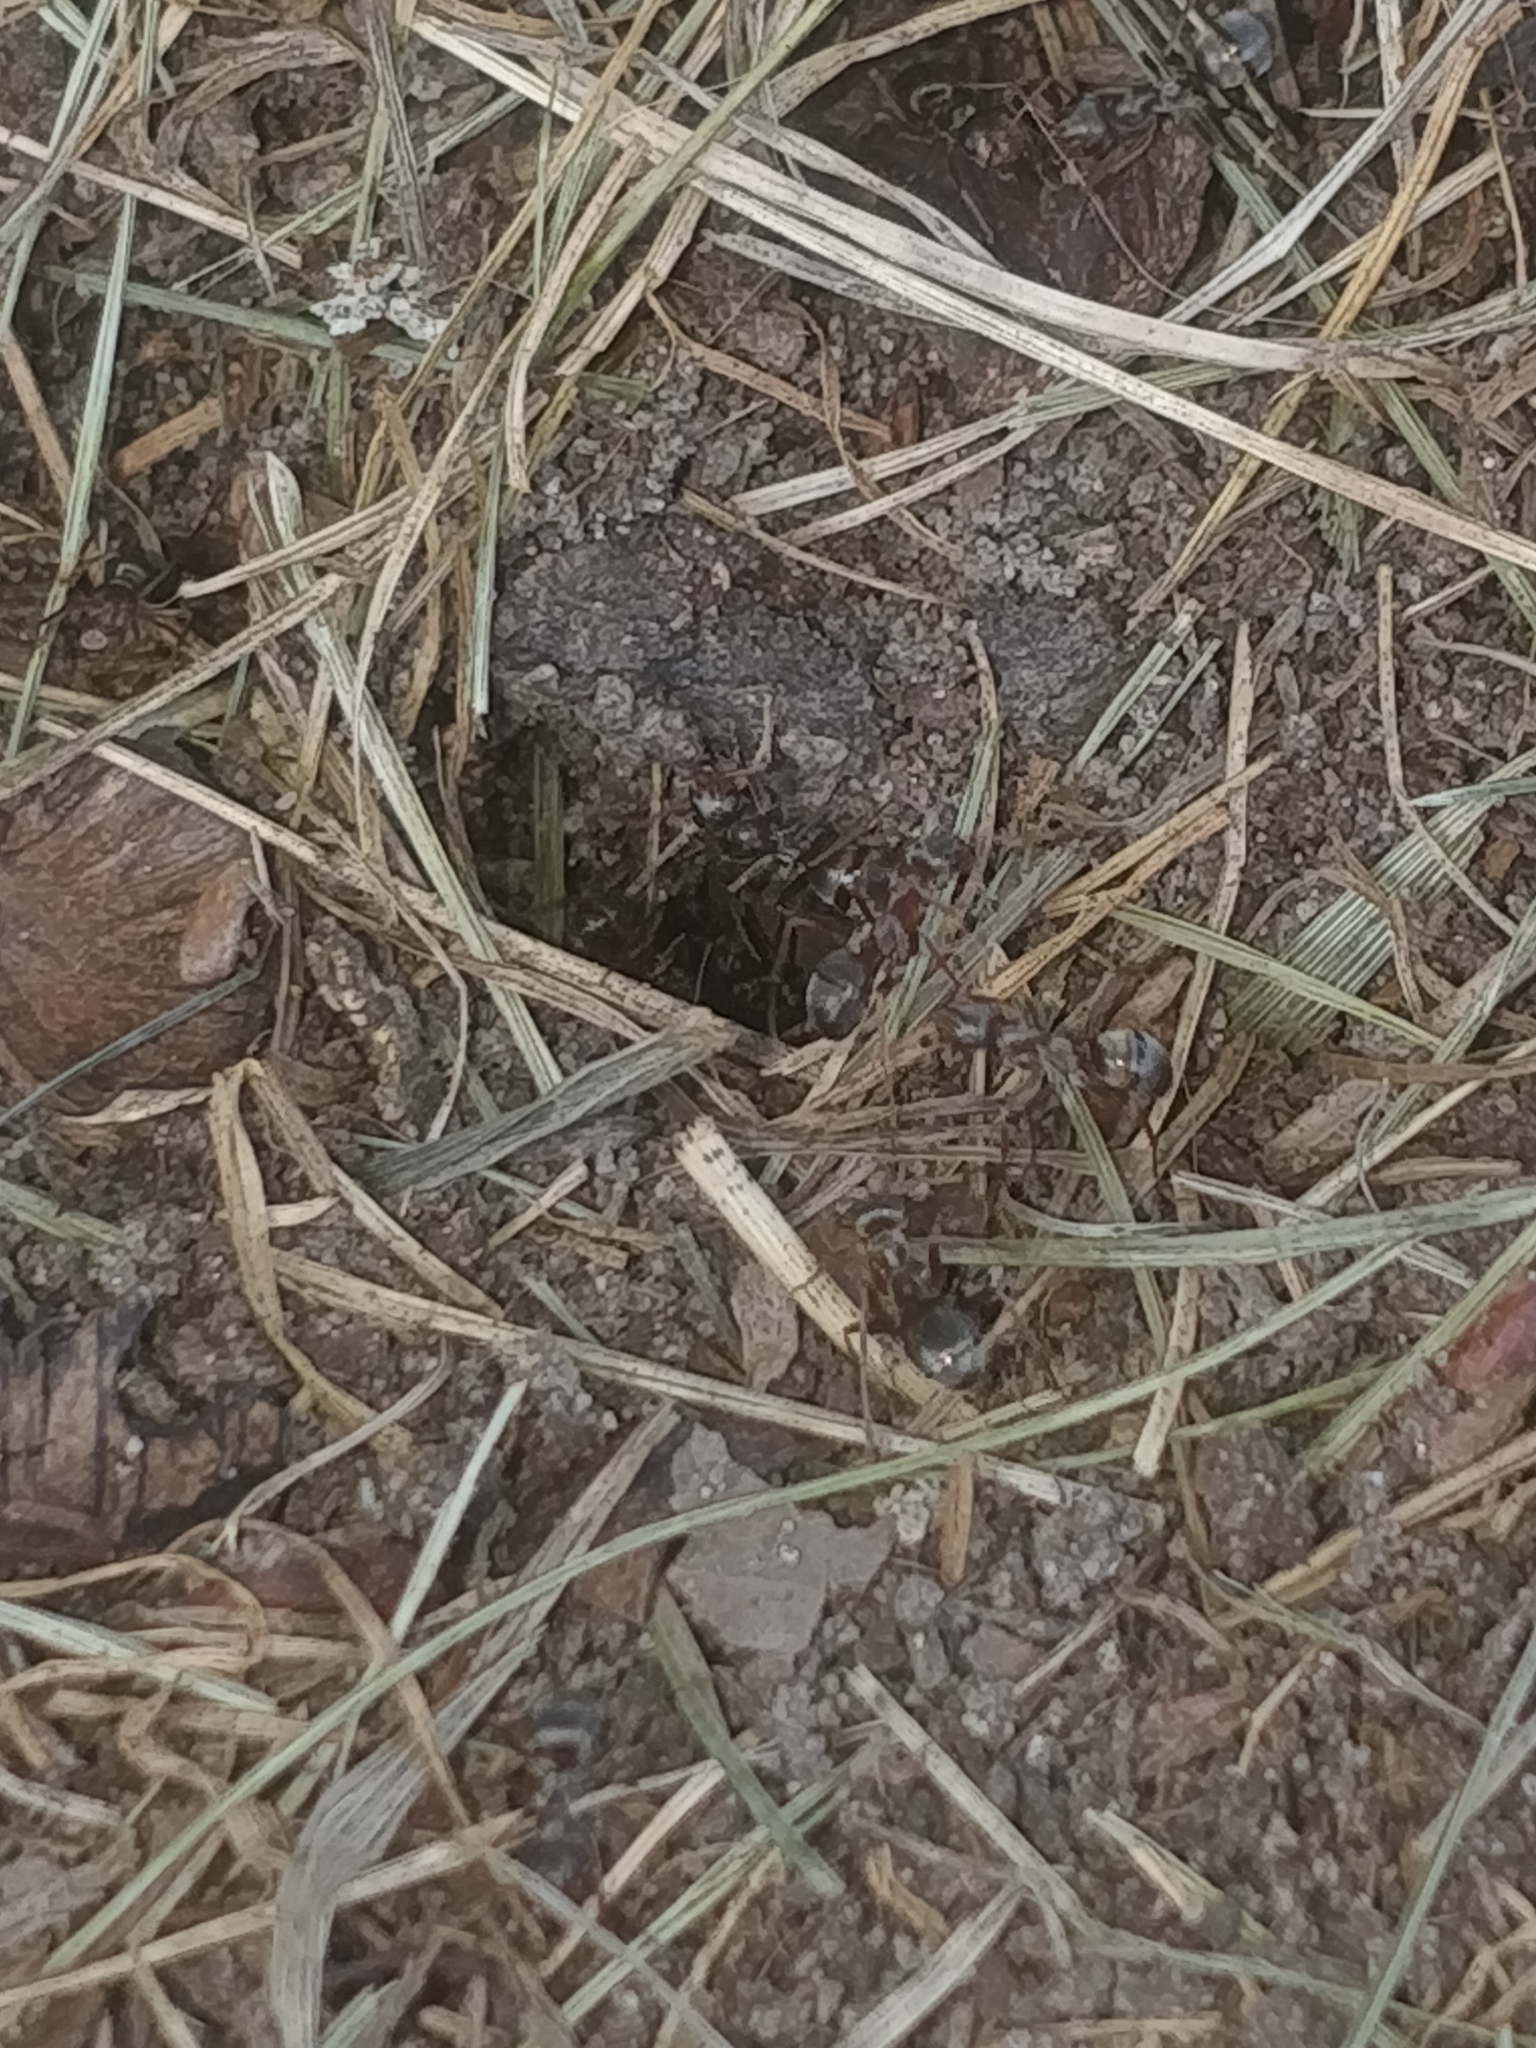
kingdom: Animalia
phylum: Arthropoda
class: Insecta
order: Hymenoptera
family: Formicidae
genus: Formica
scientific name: Formica montana
